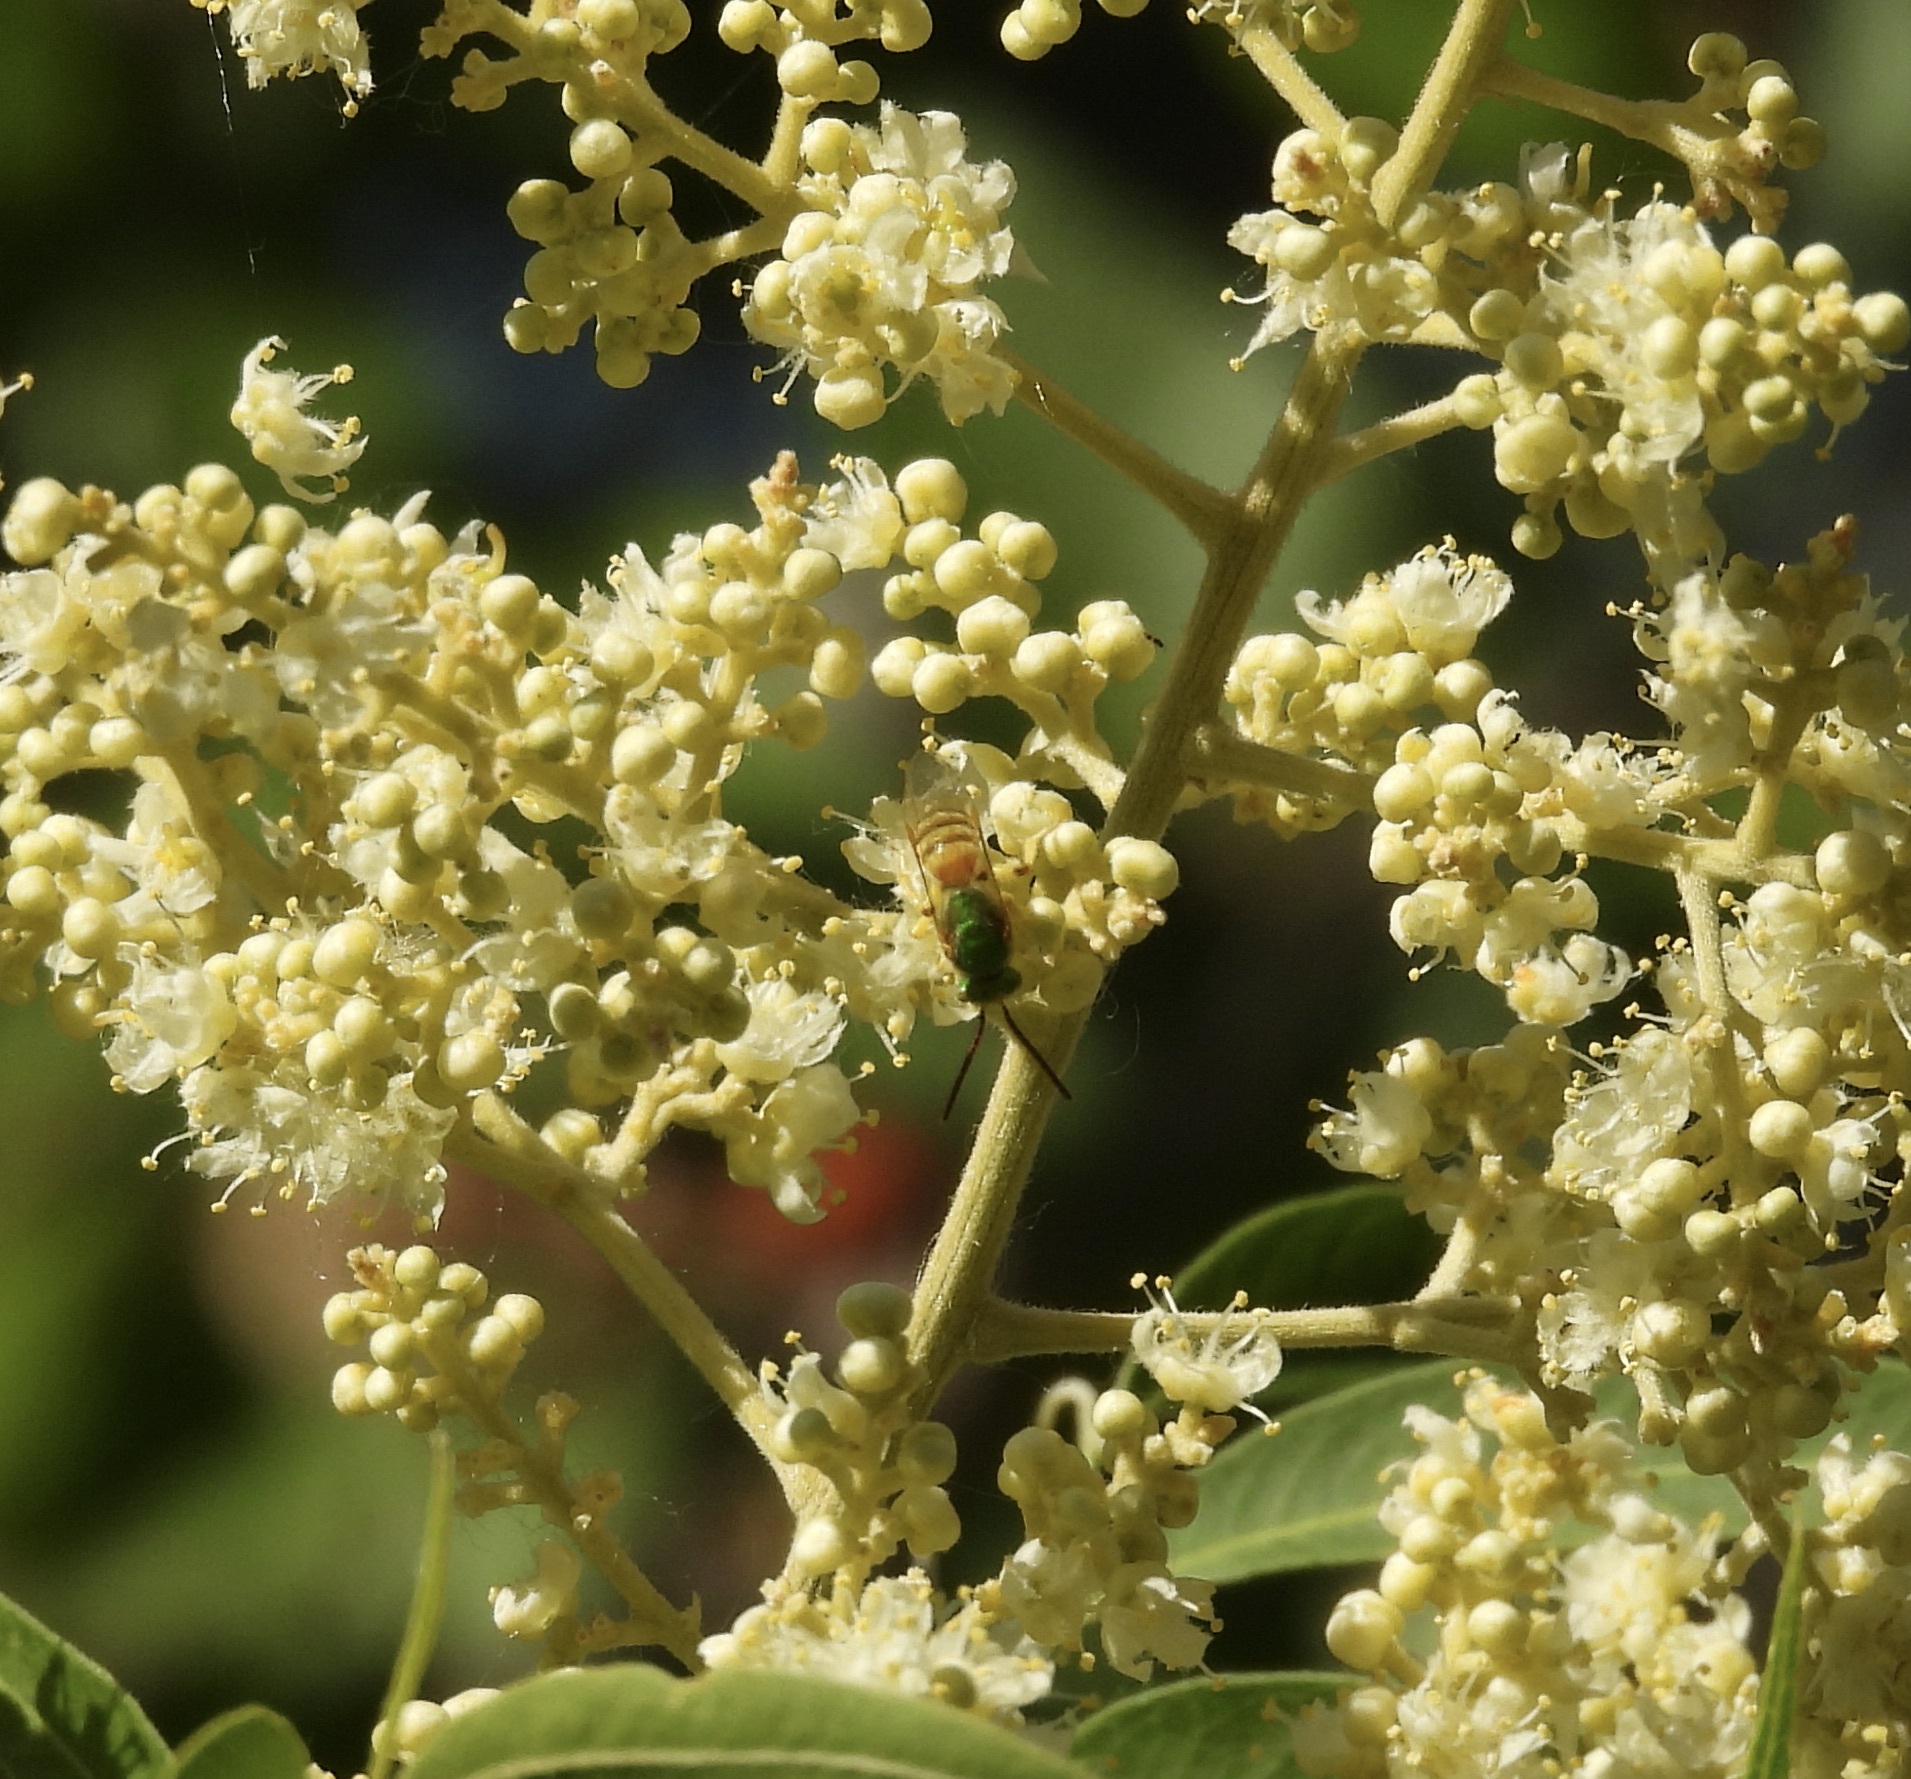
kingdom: Animalia
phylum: Arthropoda
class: Insecta
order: Hymenoptera
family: Halictidae
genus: Agapostemon
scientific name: Agapostemon melliventris
